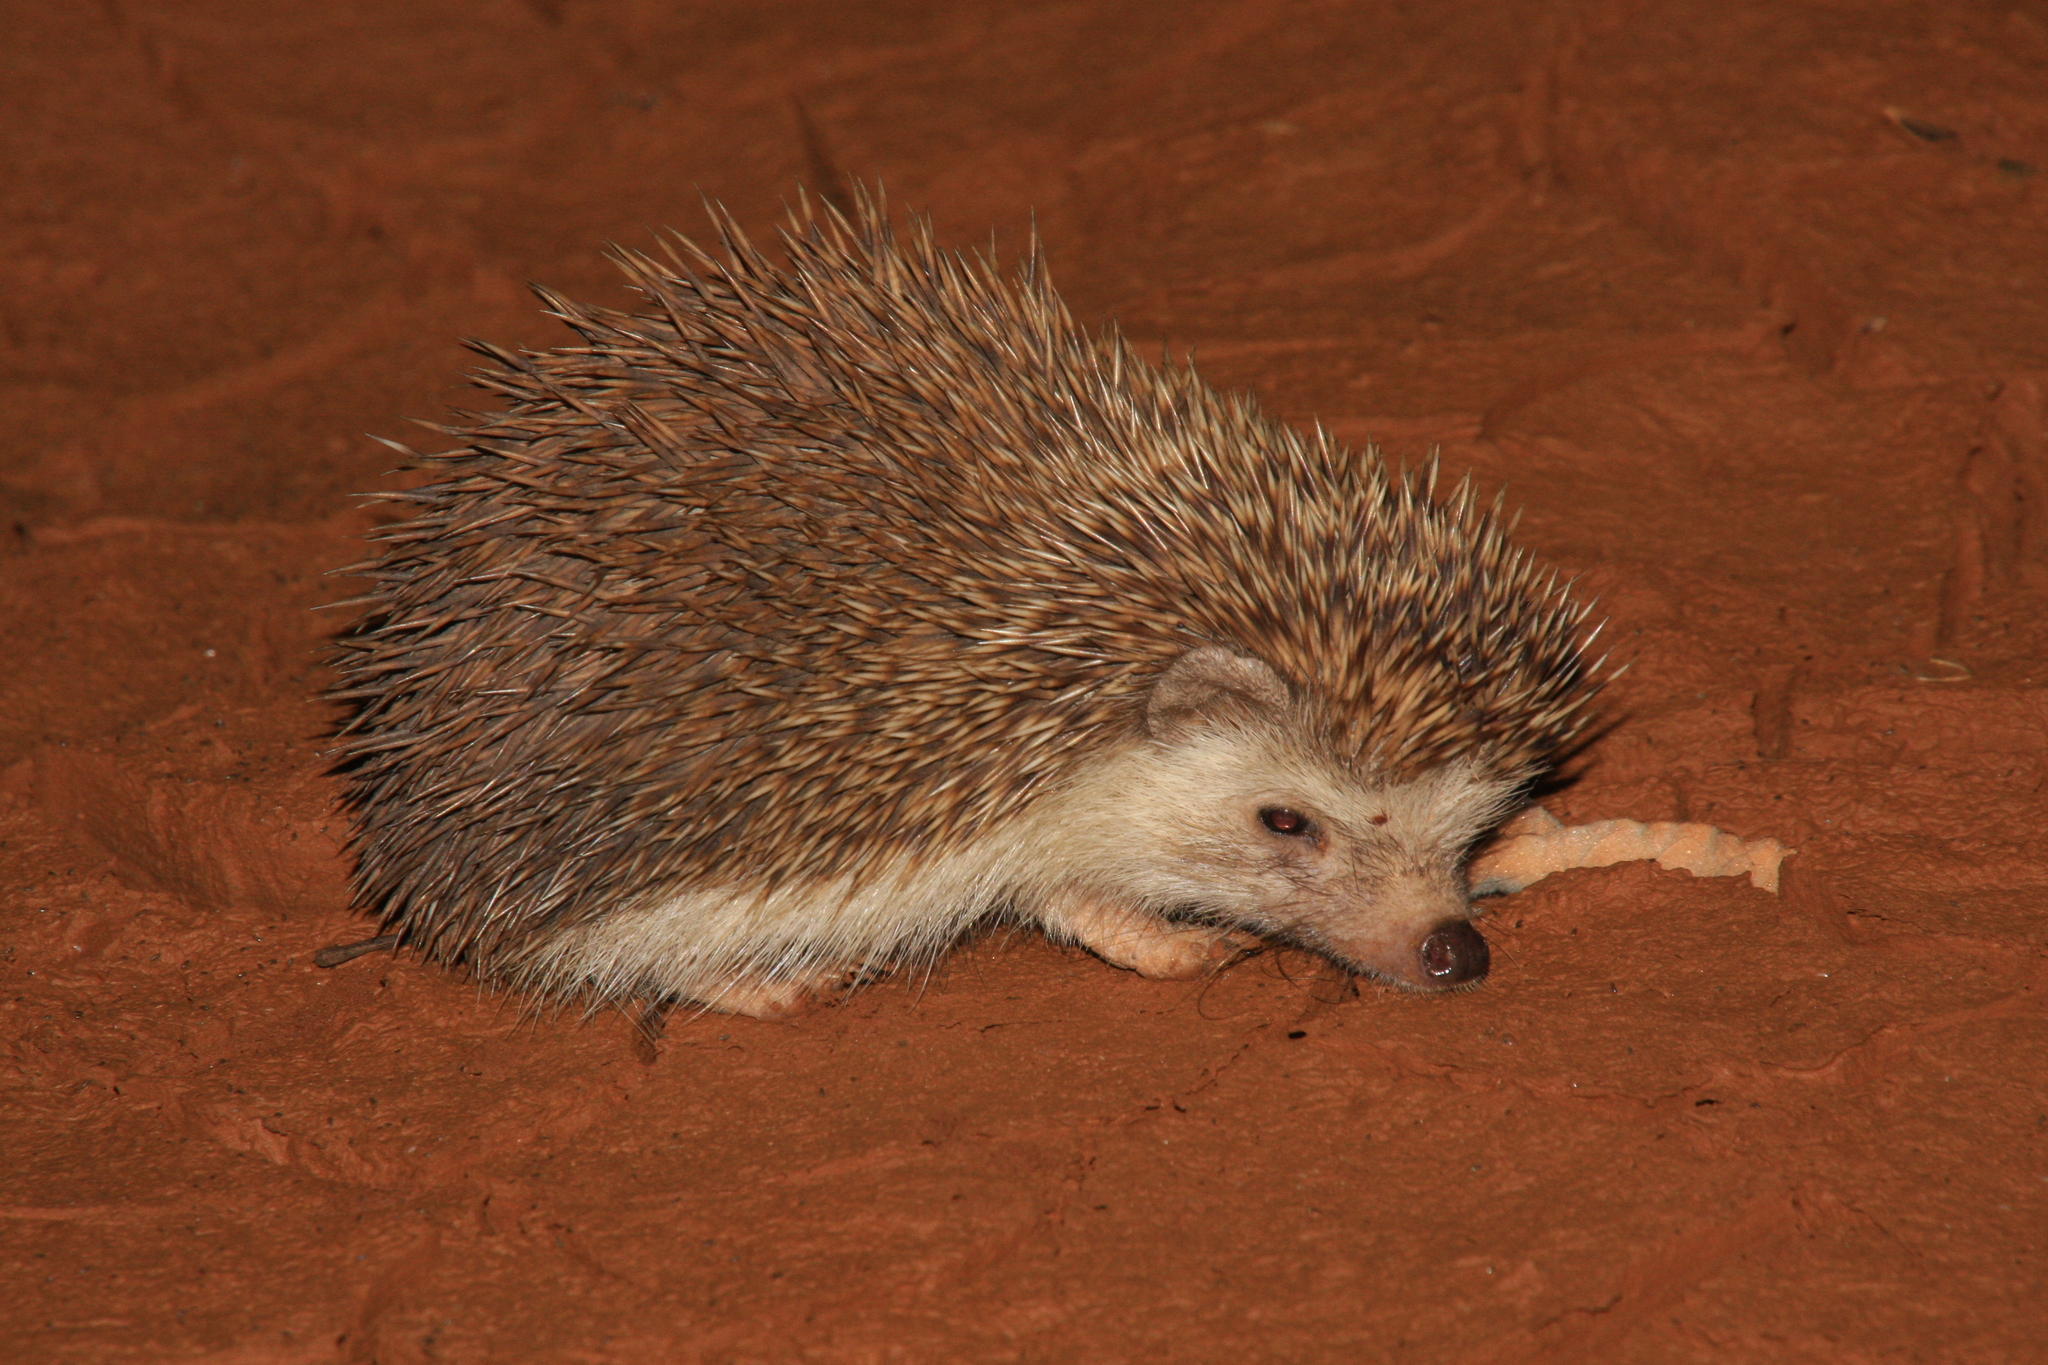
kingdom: Animalia
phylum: Chordata
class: Mammalia
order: Erinaceomorpha
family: Erinaceidae
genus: Atelerix
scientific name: Atelerix albiventris
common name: Four-toed hedgehog
